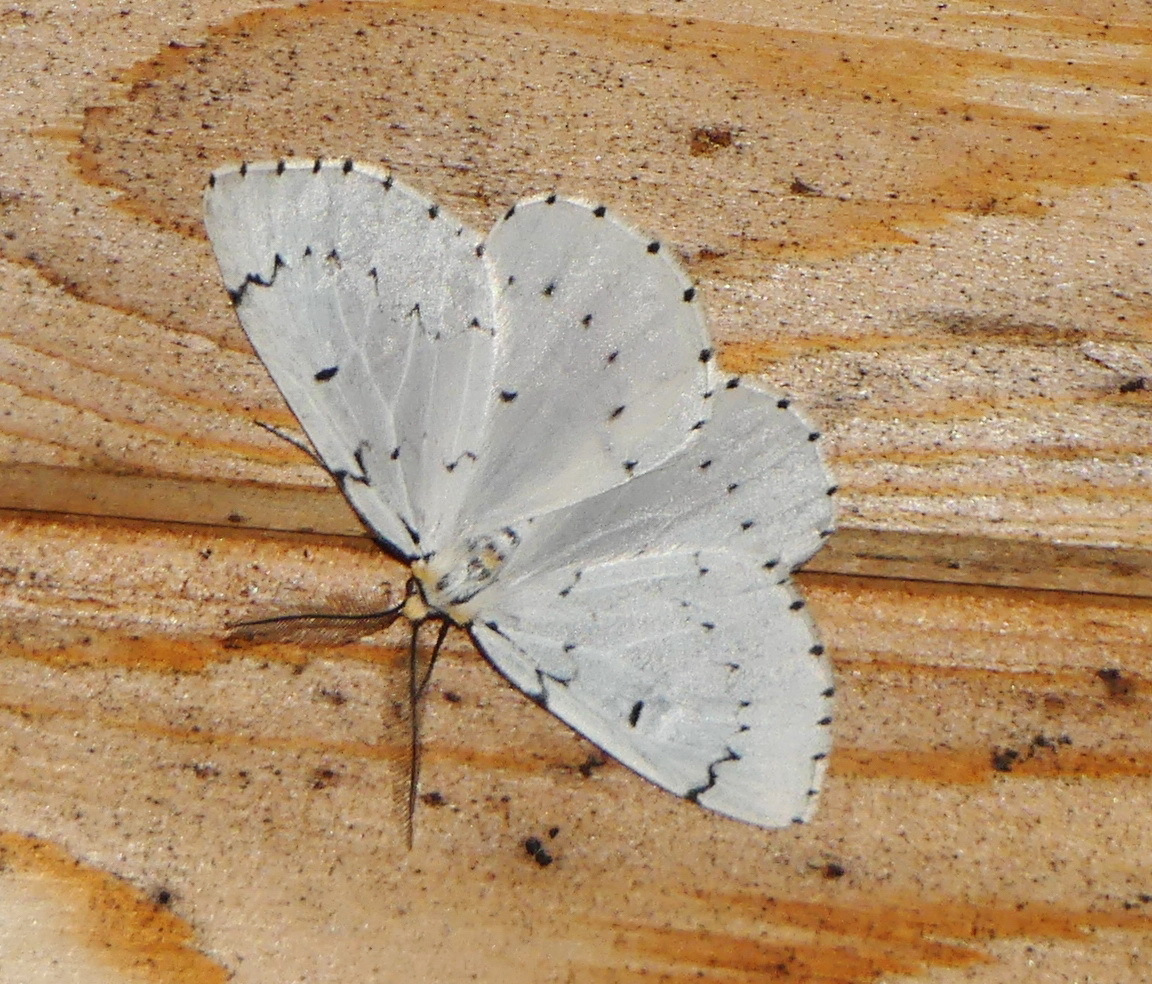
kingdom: Animalia
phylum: Arthropoda
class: Insecta
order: Lepidoptera
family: Geometridae
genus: Cingilia
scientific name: Cingilia catenaria
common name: Chain-dotted geometer
